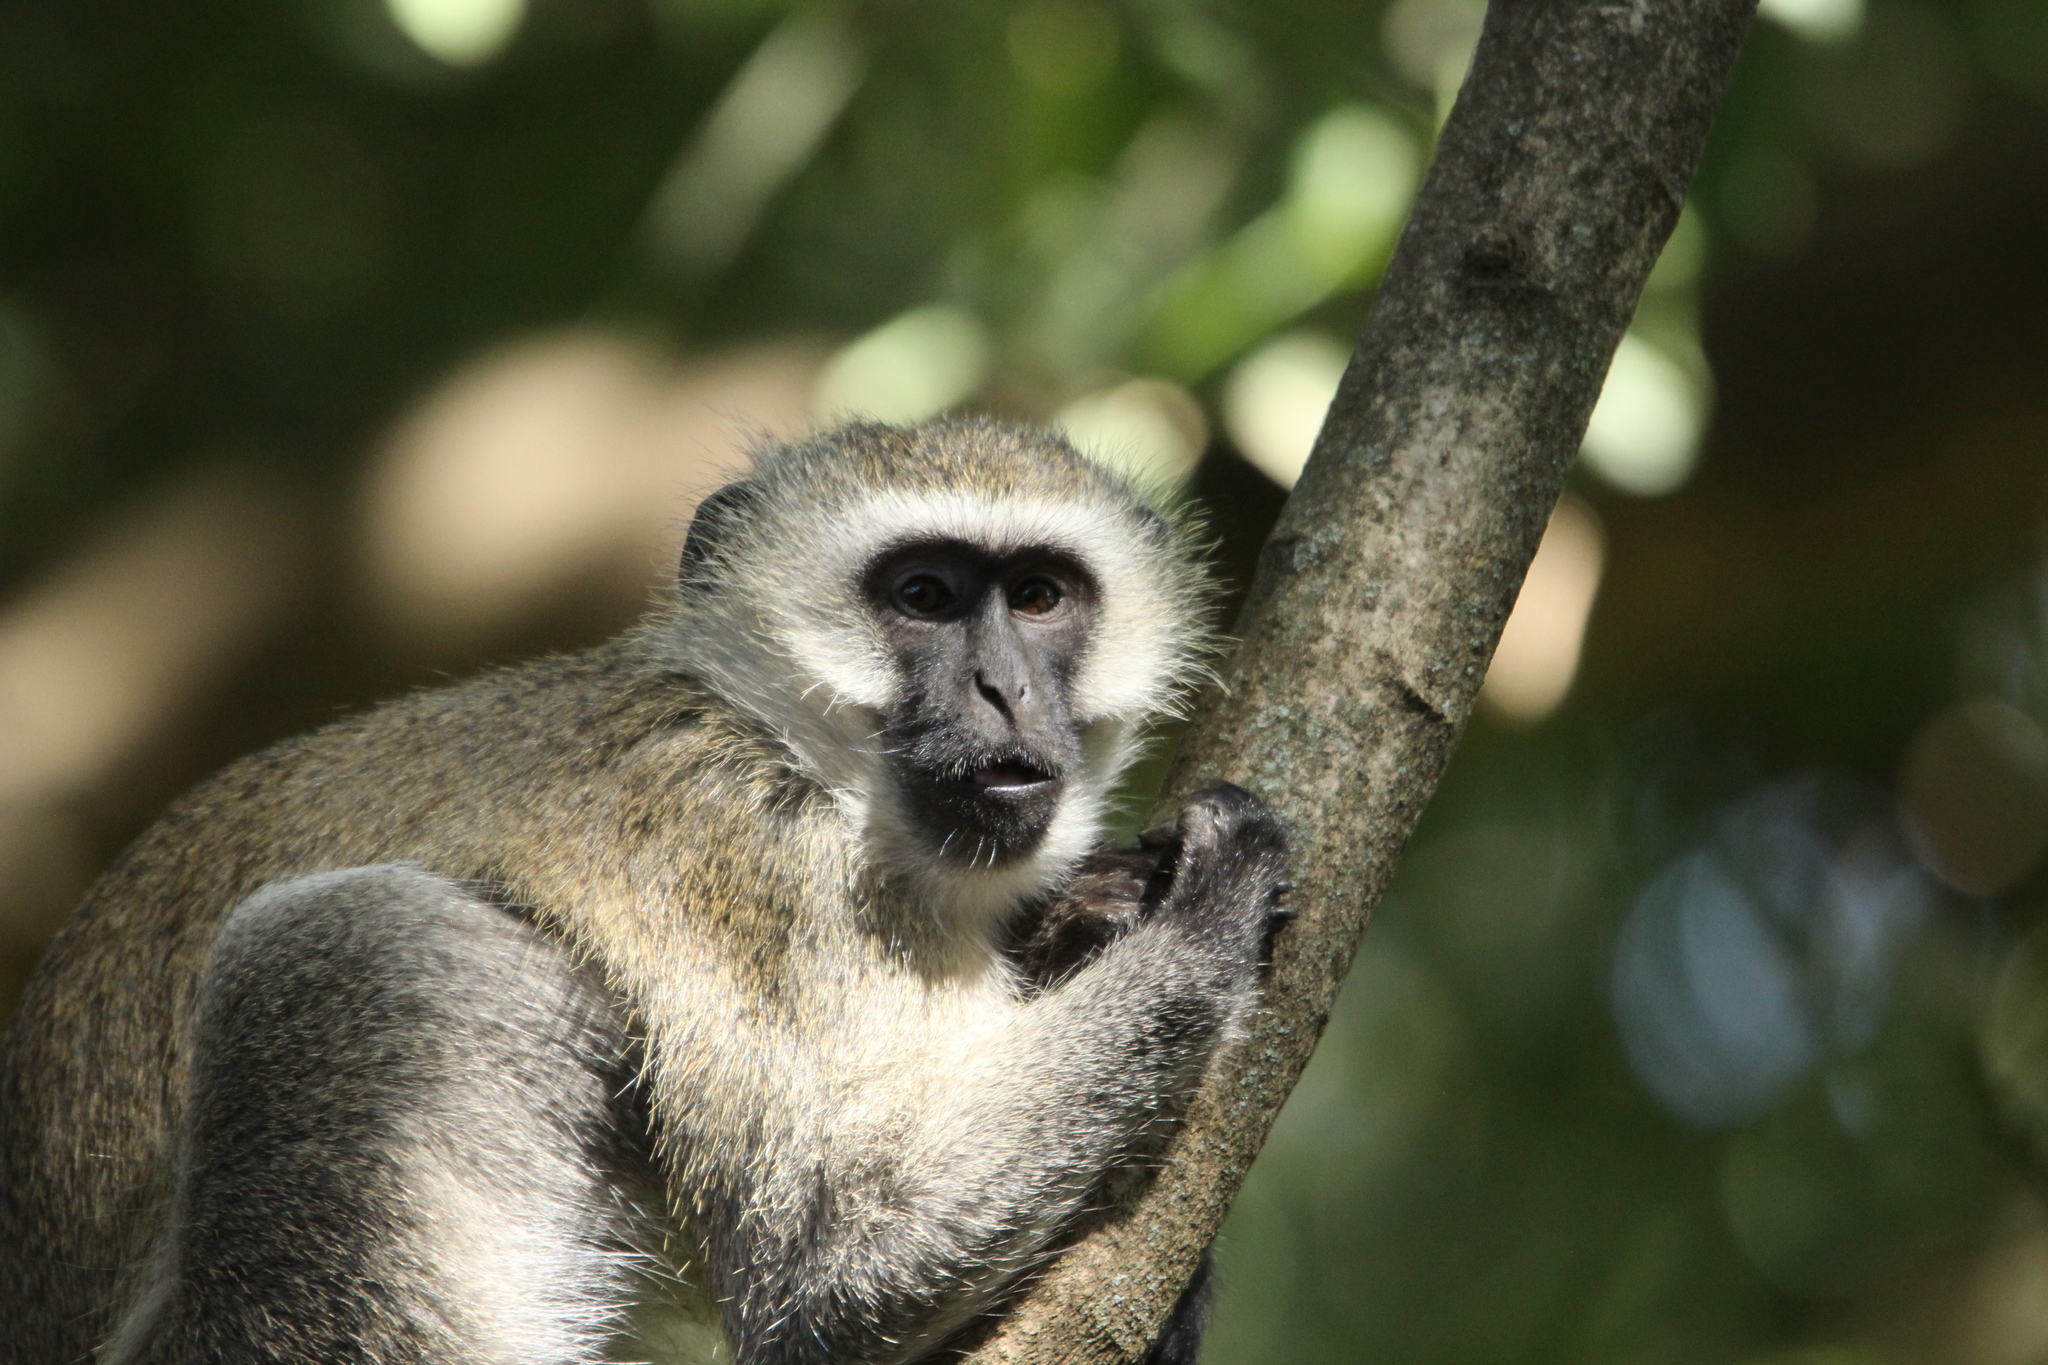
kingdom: Animalia
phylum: Chordata
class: Mammalia
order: Primates
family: Cercopithecidae
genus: Chlorocebus
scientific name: Chlorocebus pygerythrus
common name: Vervet monkey
